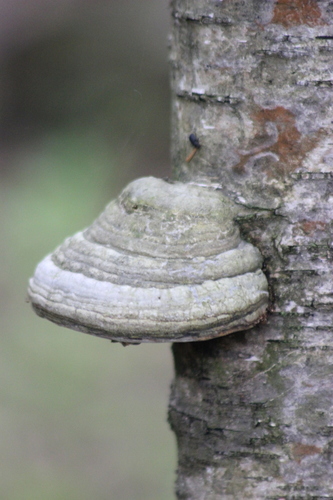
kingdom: Fungi
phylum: Basidiomycota
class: Agaricomycetes
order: Polyporales
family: Polyporaceae
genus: Fomes
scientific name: Fomes fomentarius
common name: Hoof fungus
